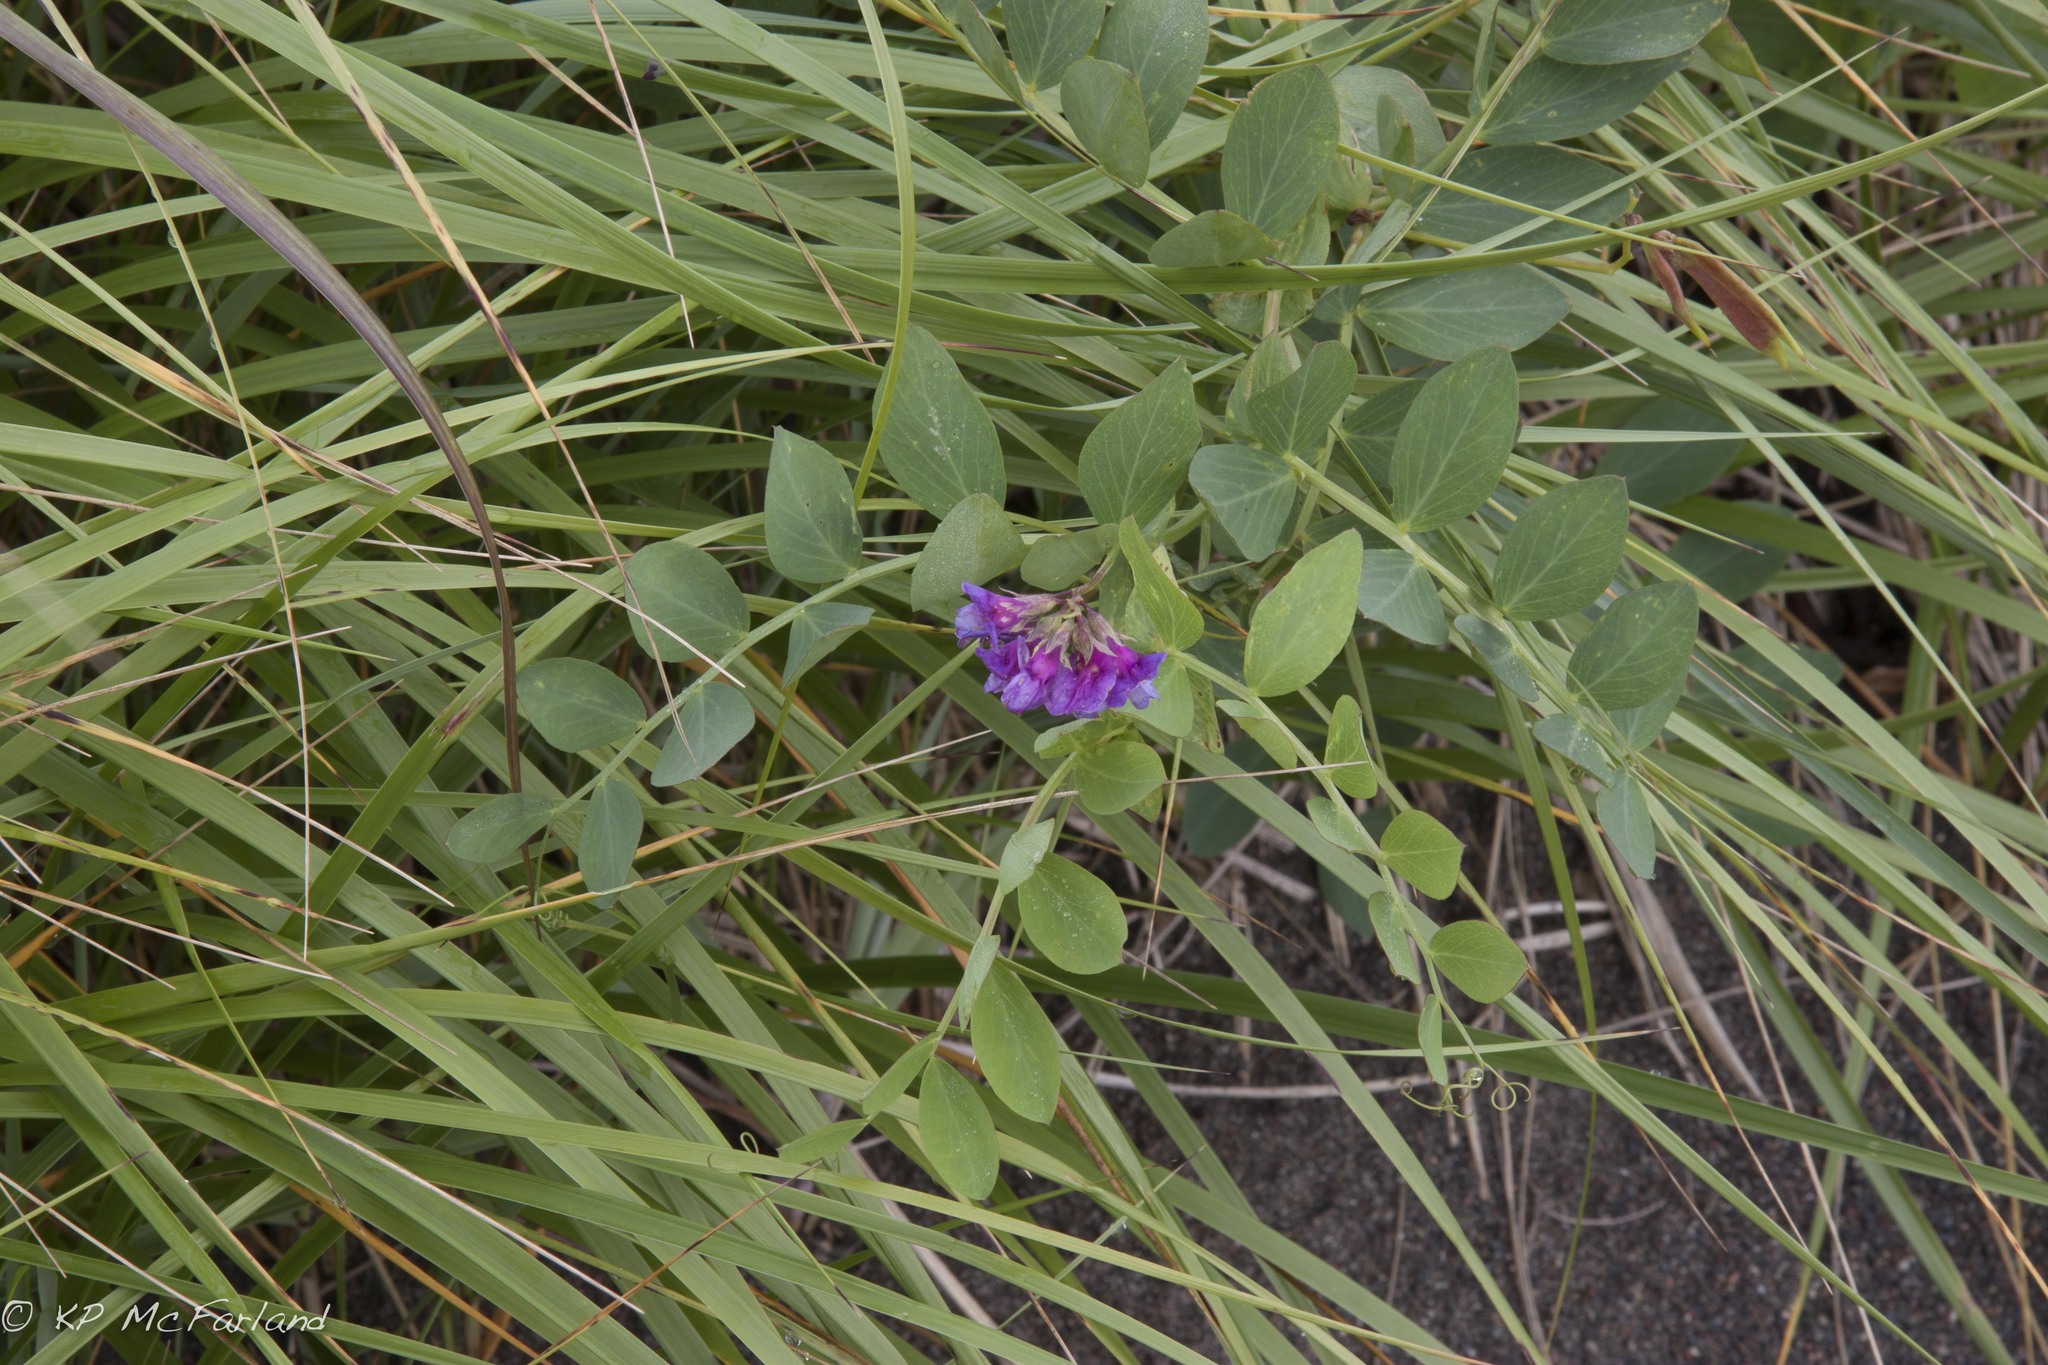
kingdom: Plantae
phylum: Tracheophyta
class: Magnoliopsida
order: Fabales
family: Fabaceae
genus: Lathyrus
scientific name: Lathyrus japonicus
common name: Sea pea
